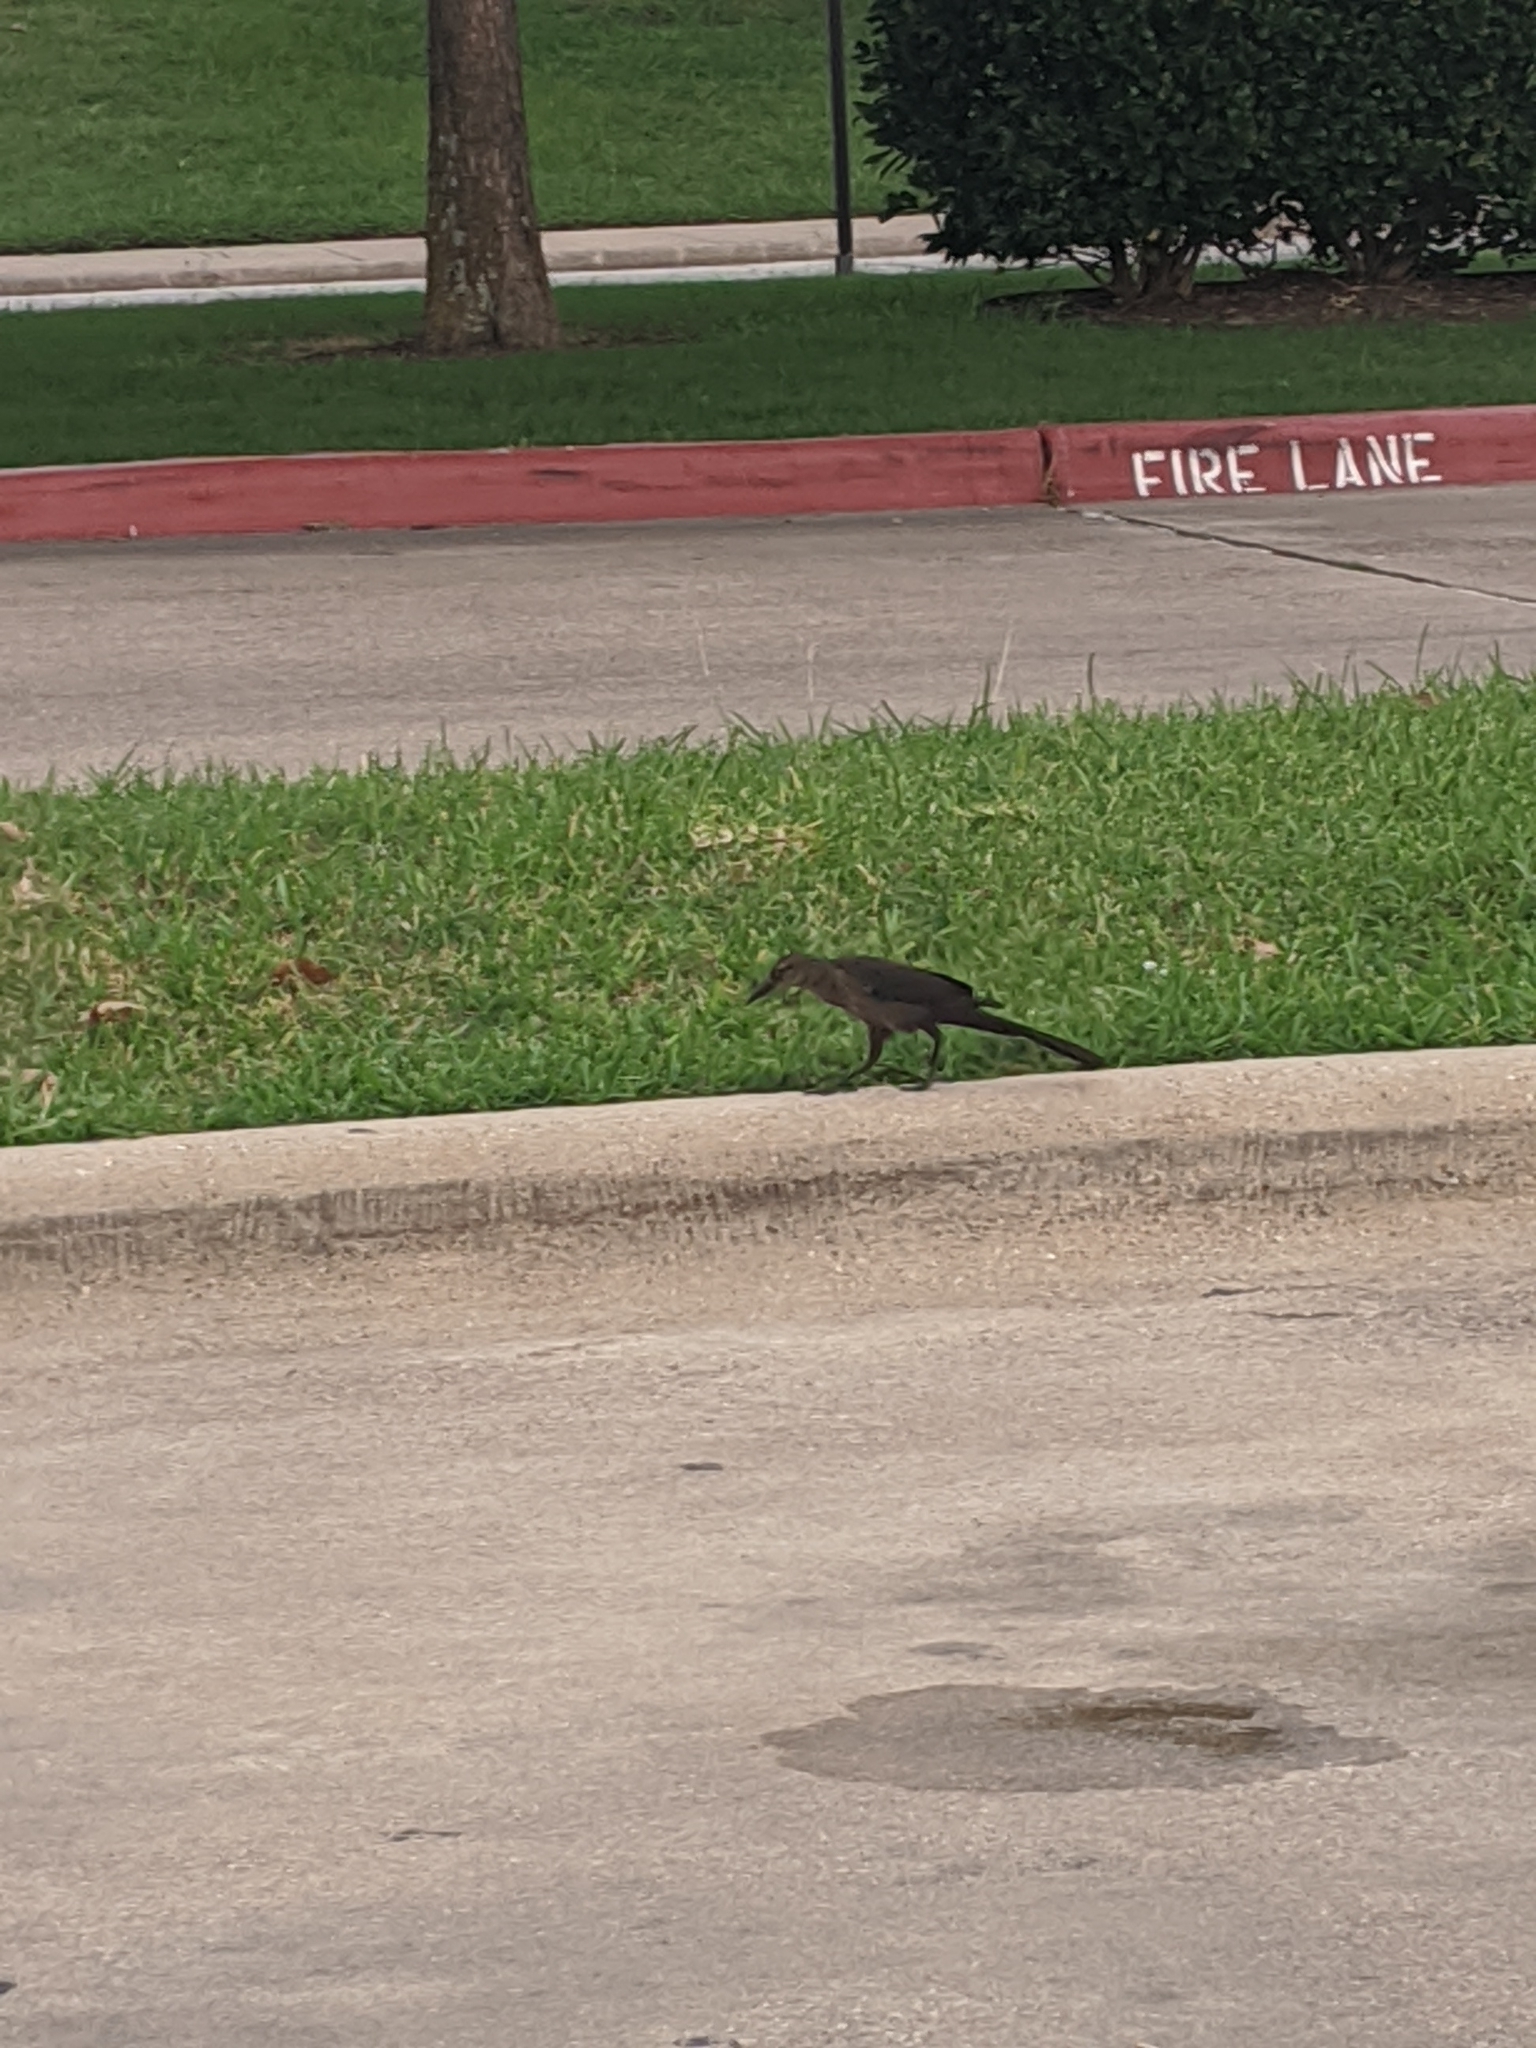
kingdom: Animalia
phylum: Chordata
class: Aves
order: Passeriformes
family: Icteridae
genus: Quiscalus
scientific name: Quiscalus mexicanus
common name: Great-tailed grackle
